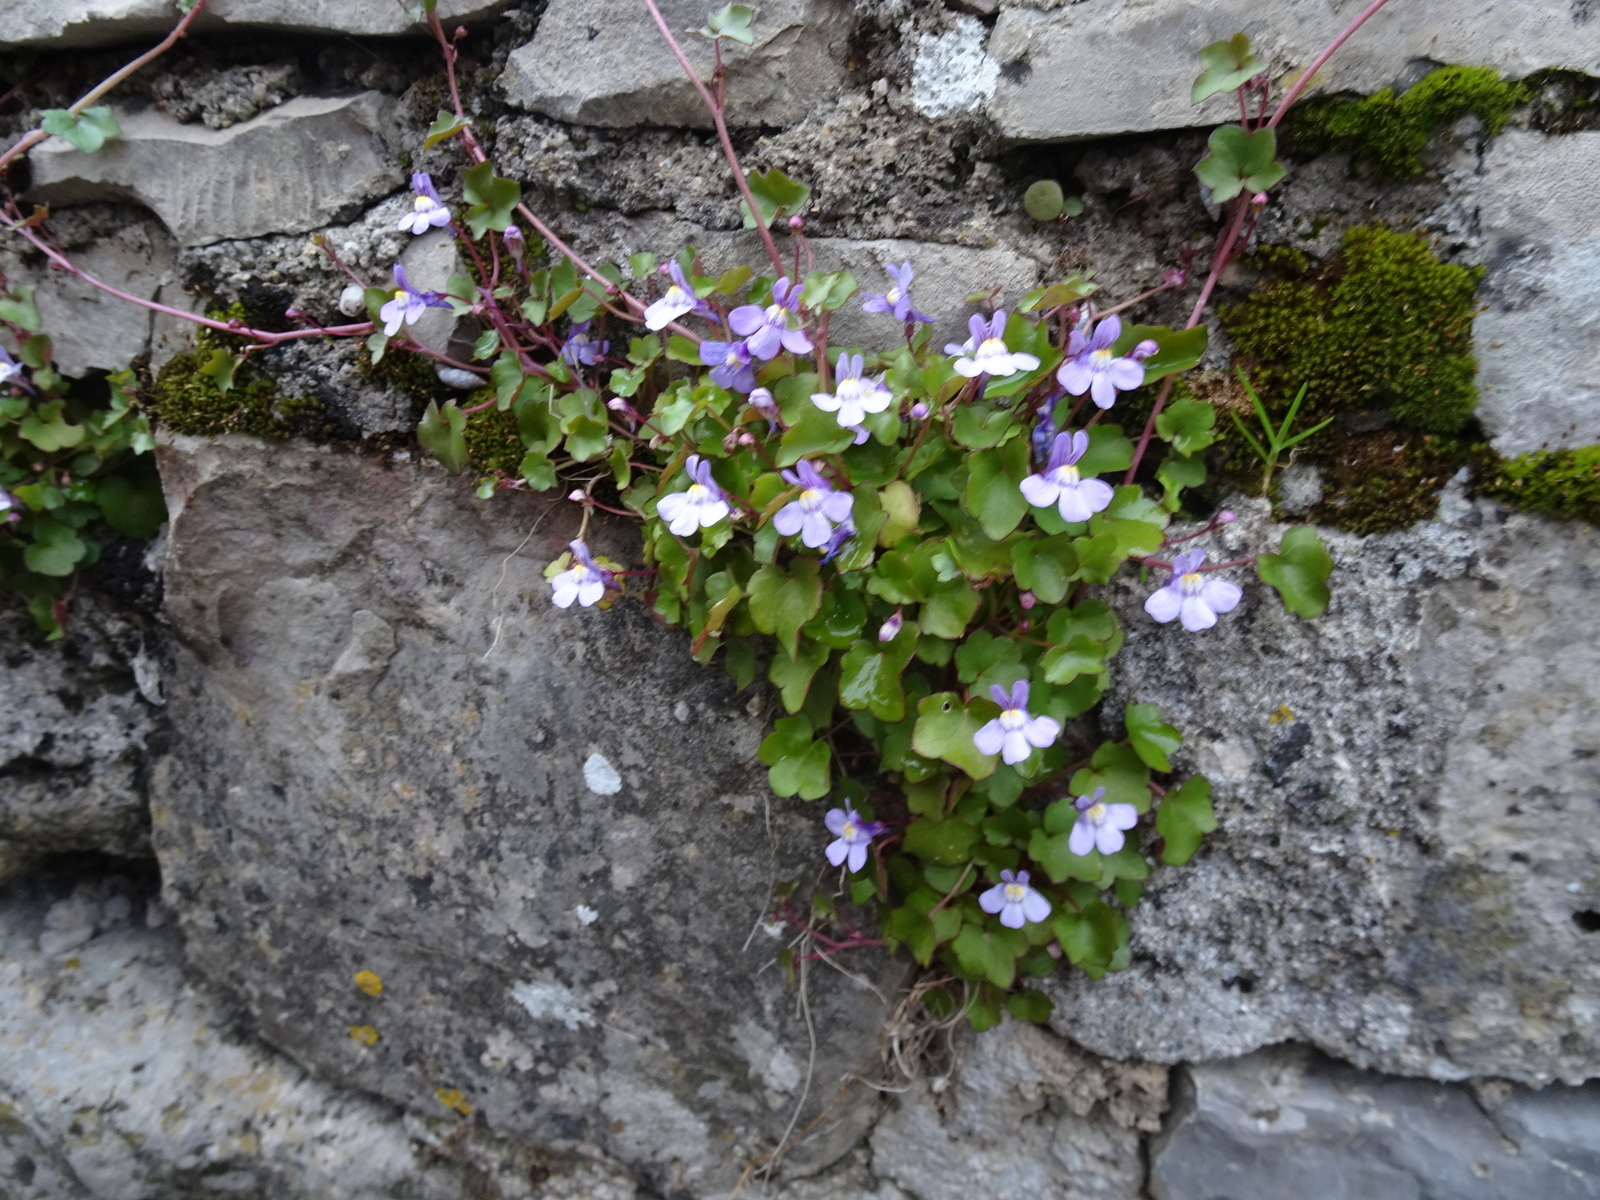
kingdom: Plantae
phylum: Tracheophyta
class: Magnoliopsida
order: Lamiales
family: Plantaginaceae
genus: Cymbalaria
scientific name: Cymbalaria muralis
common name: Ivy-leaved toadflax
